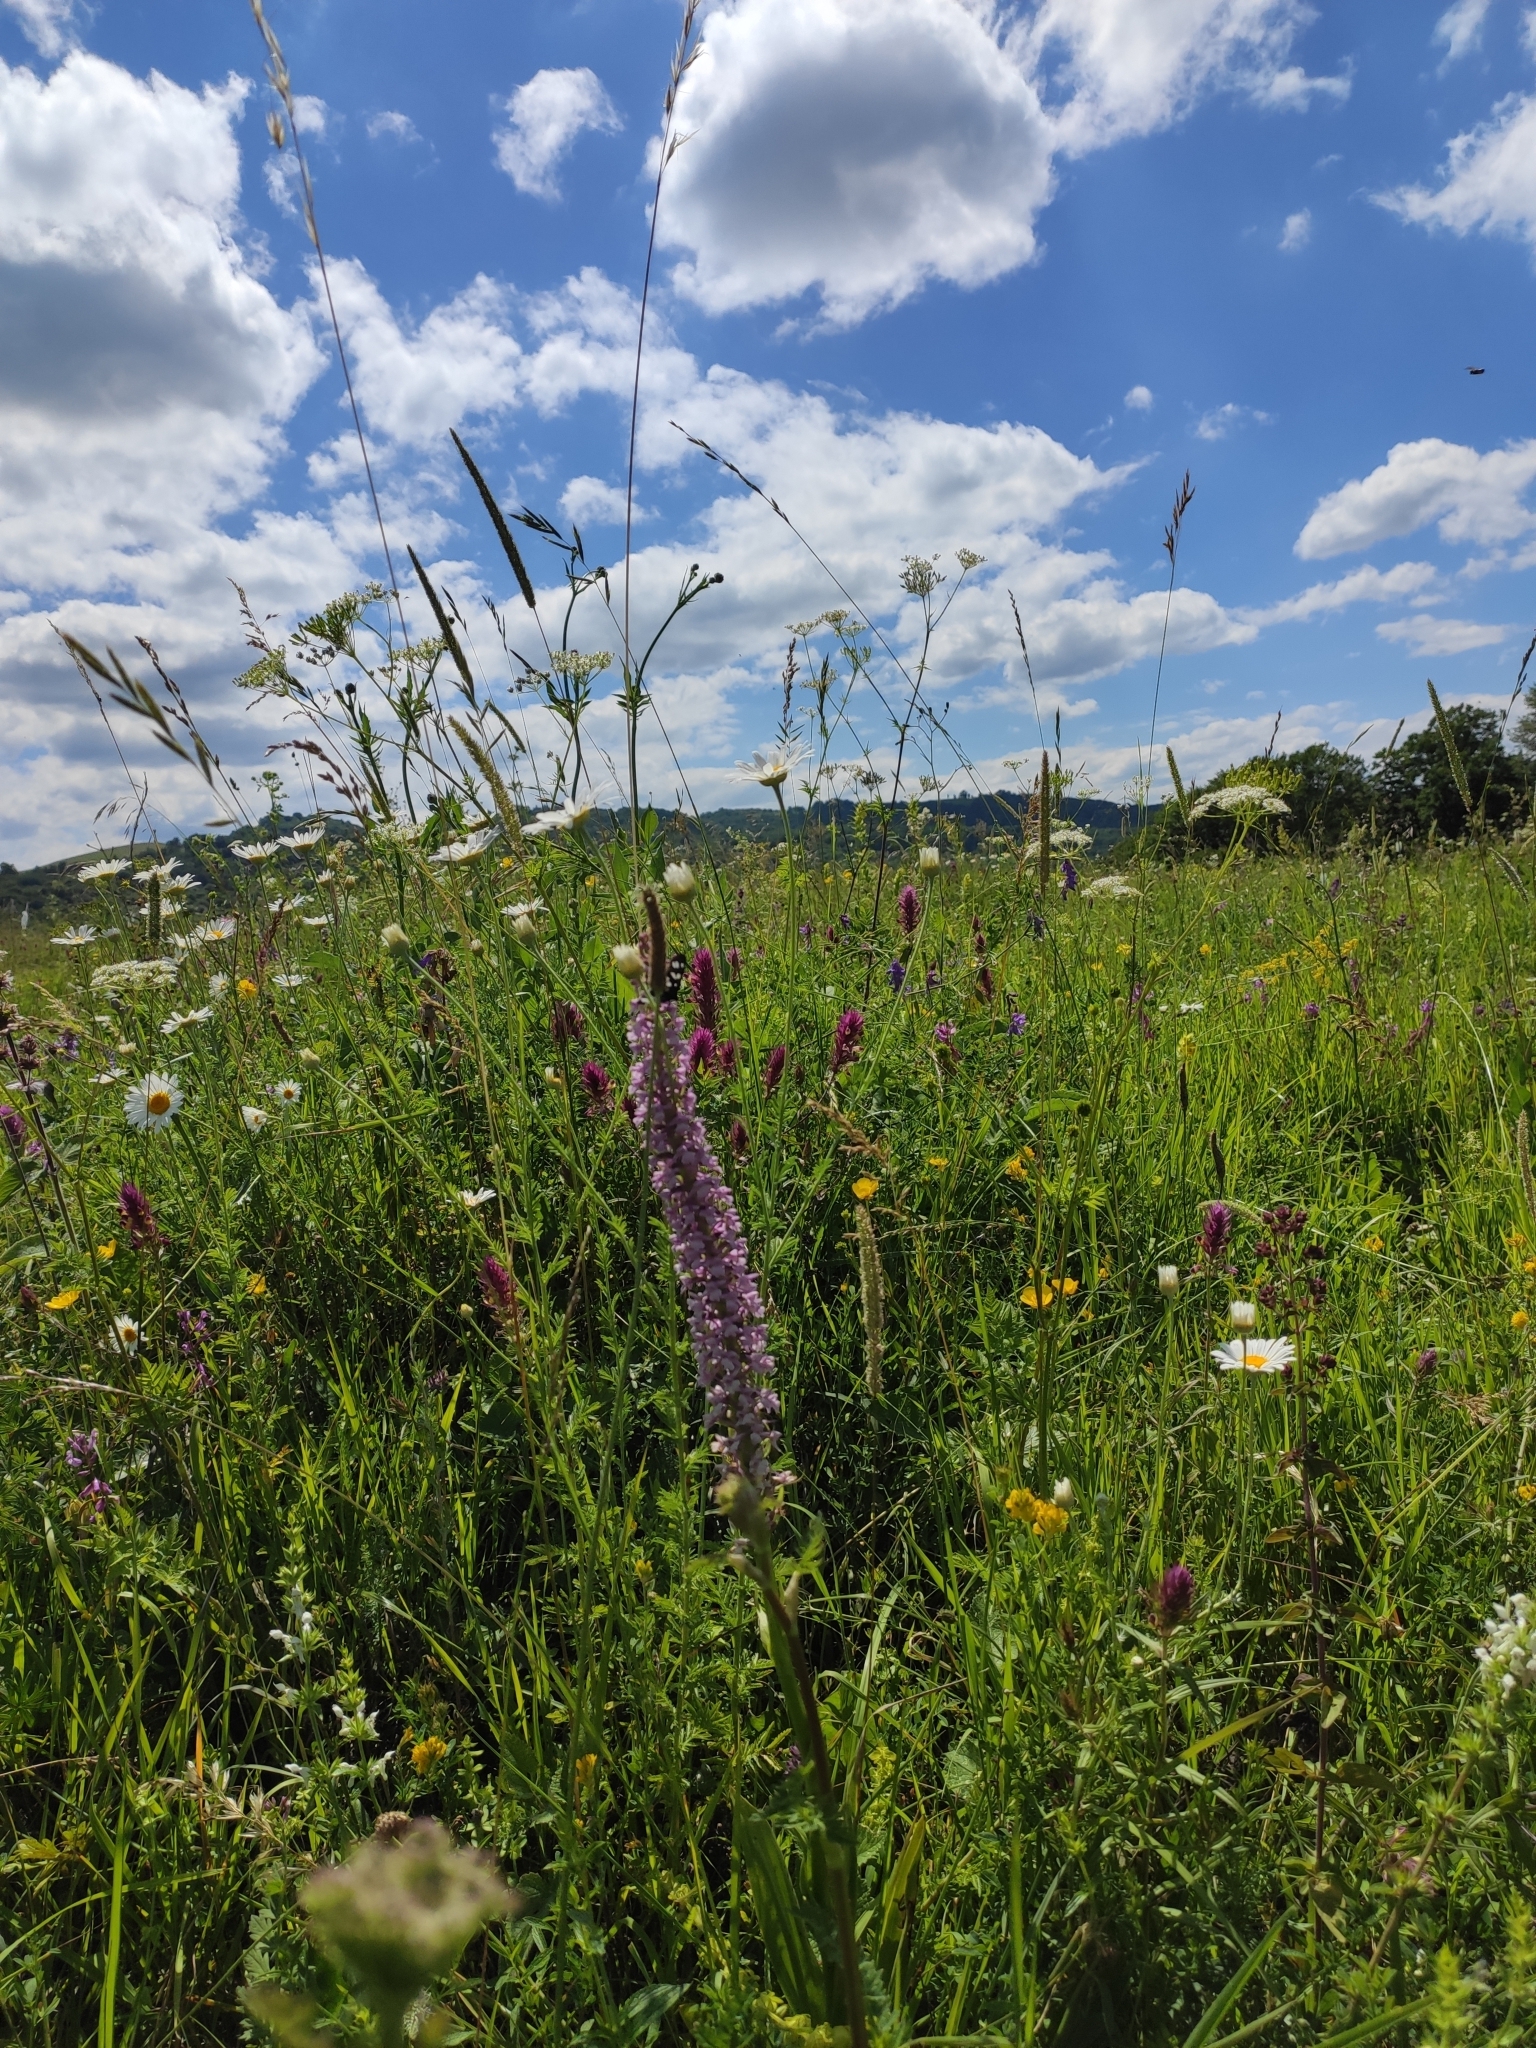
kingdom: Plantae
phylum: Tracheophyta
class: Liliopsida
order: Asparagales
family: Orchidaceae
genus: Gymnadenia
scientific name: Gymnadenia conopsea
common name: Fragrant orchid
